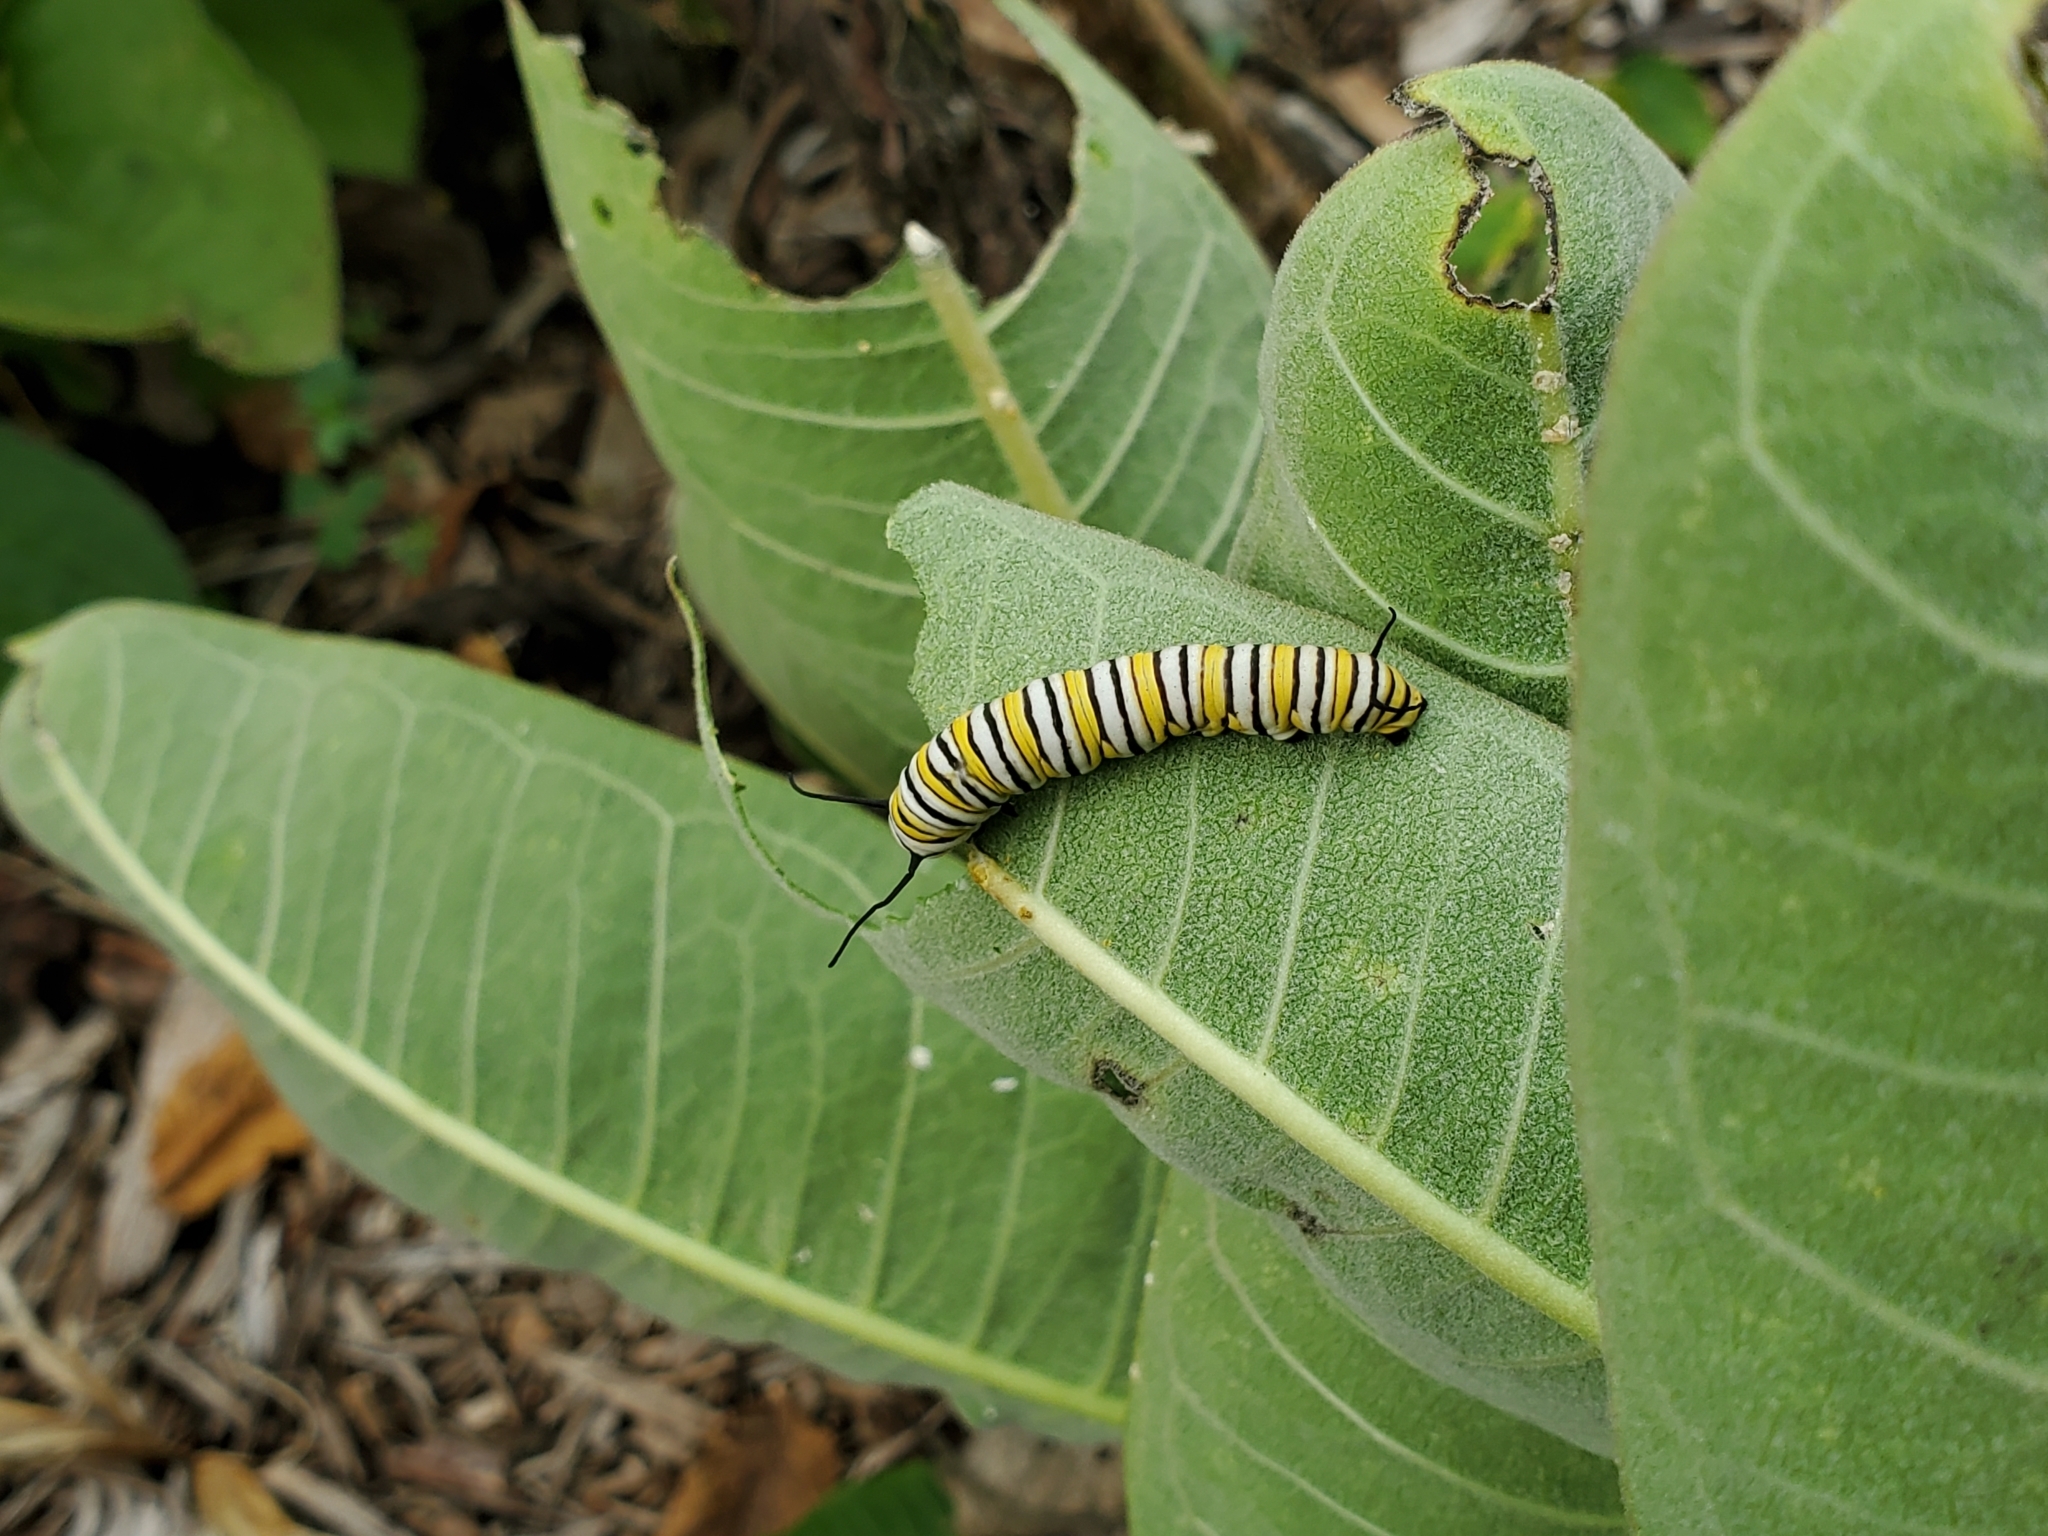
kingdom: Animalia
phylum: Arthropoda
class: Insecta
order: Lepidoptera
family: Nymphalidae
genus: Danaus
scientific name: Danaus plexippus
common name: Monarch
